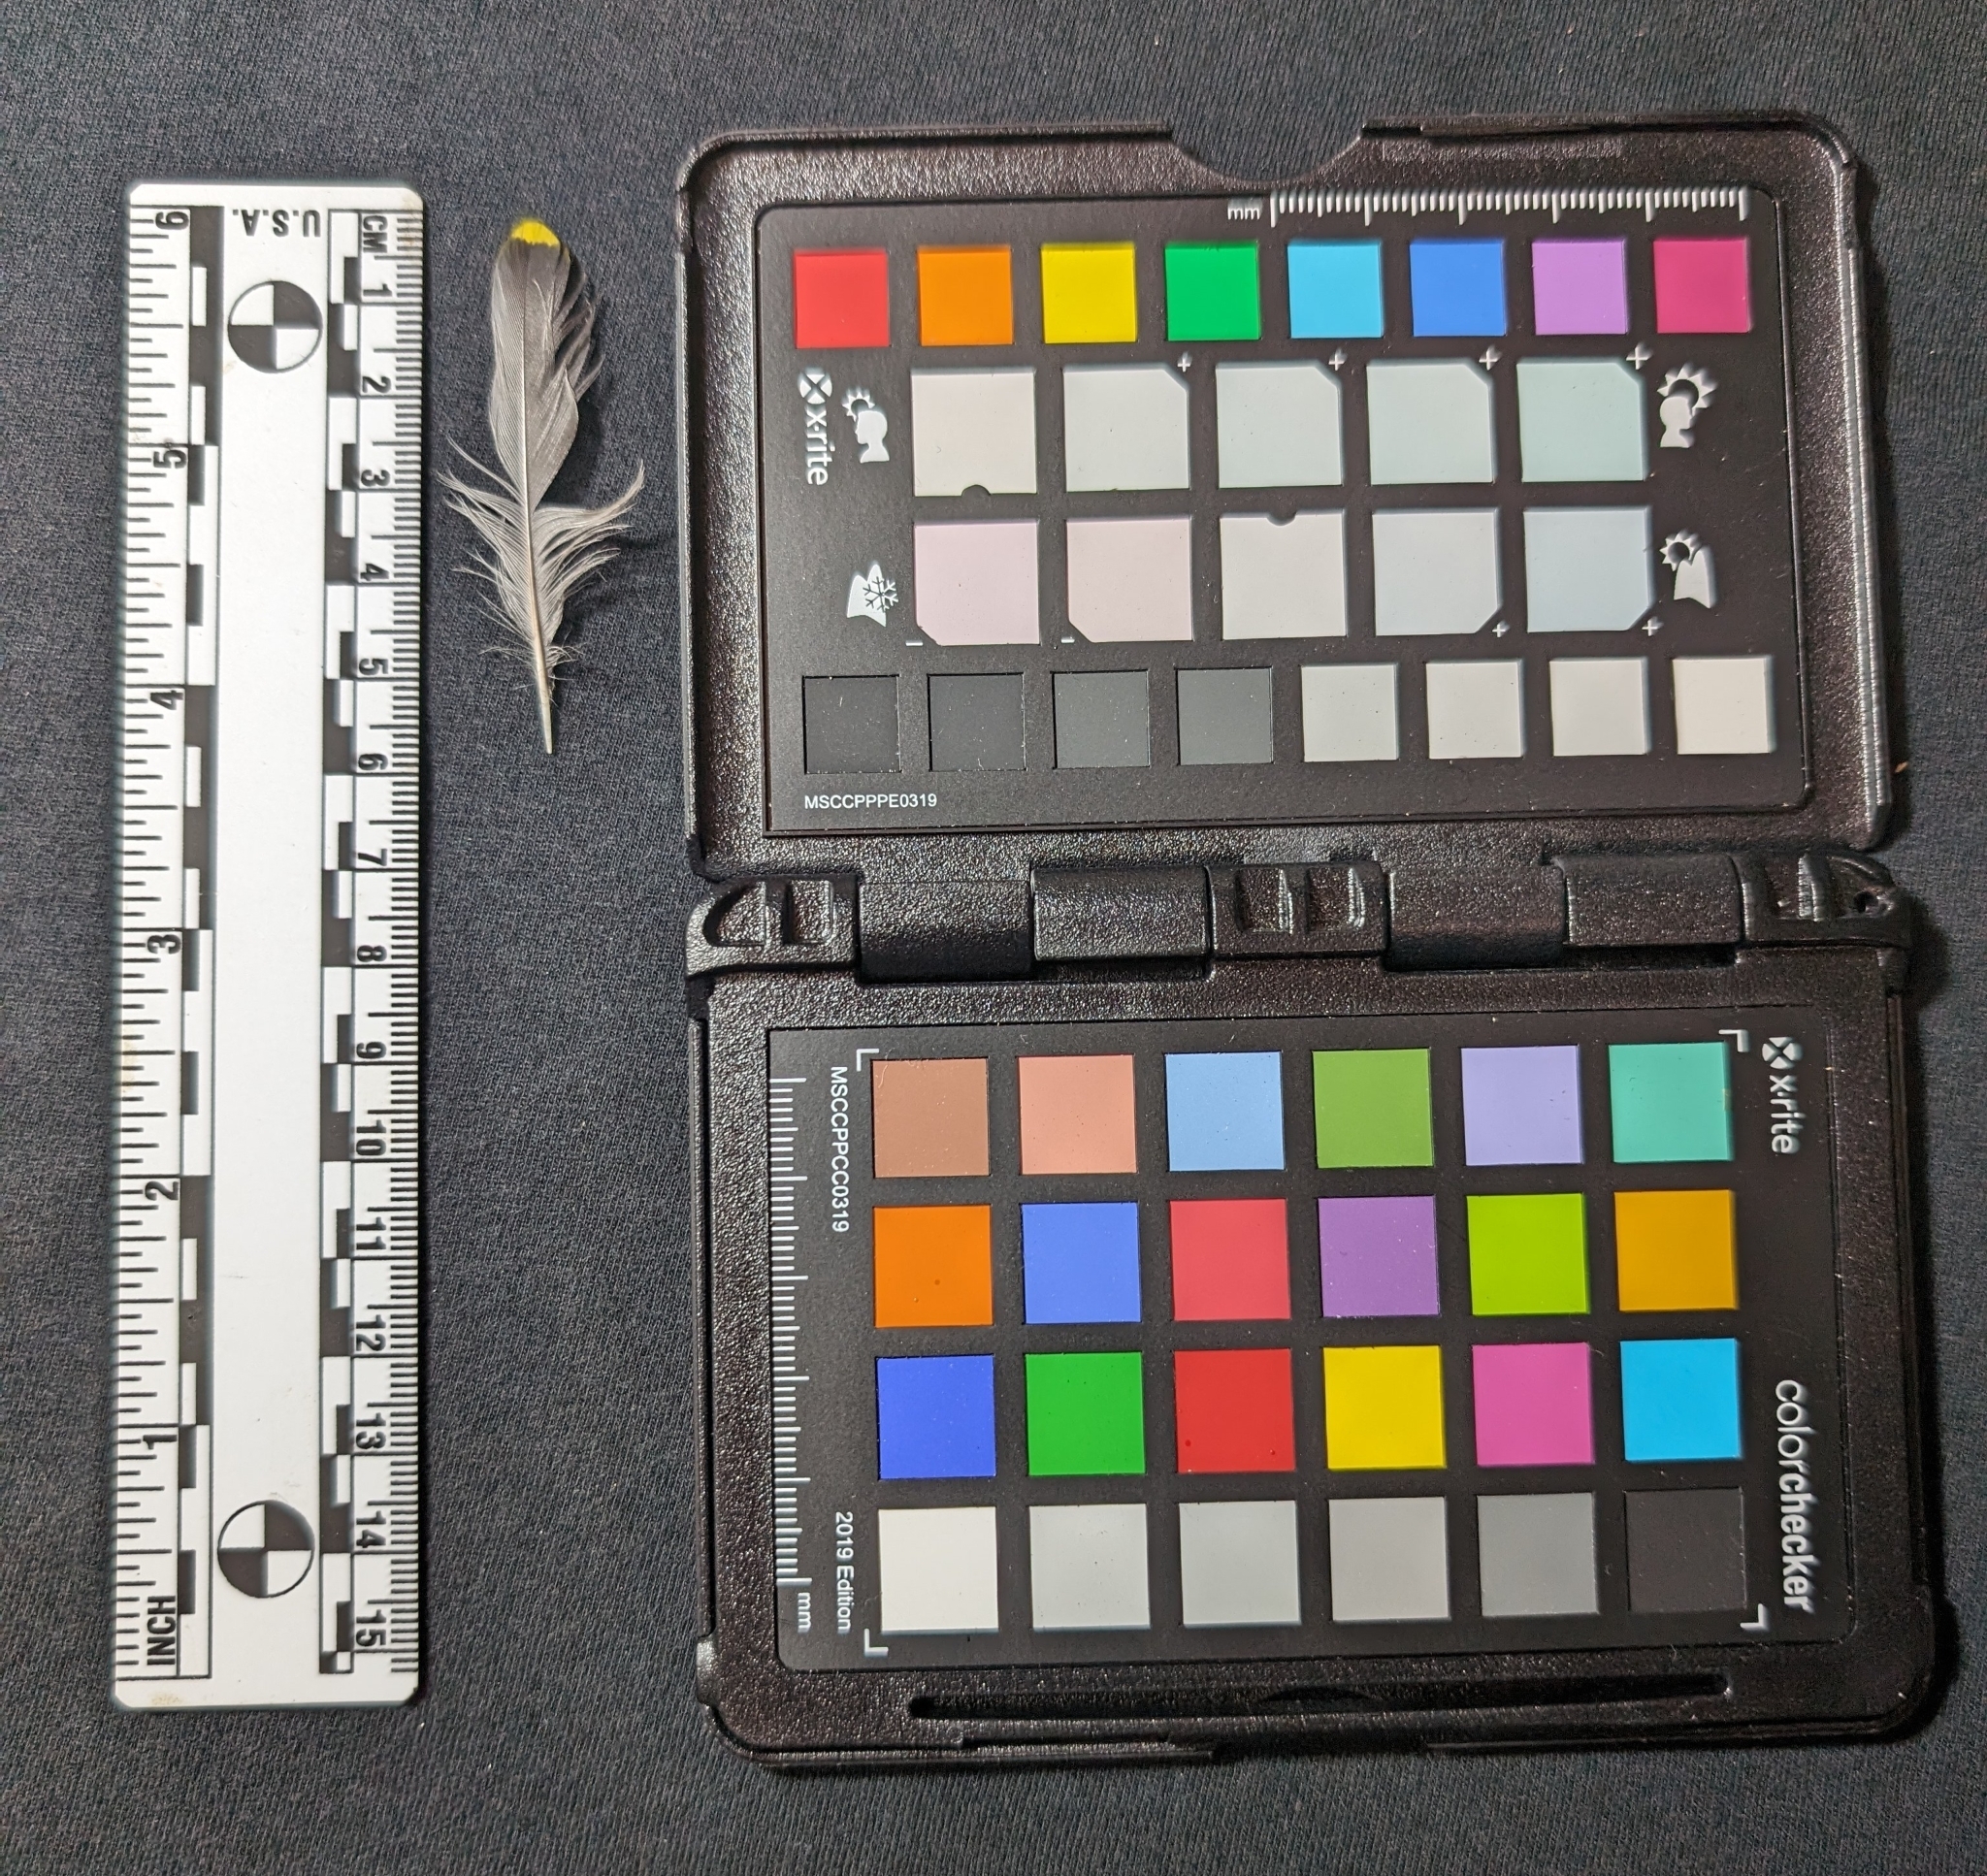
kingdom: Animalia
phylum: Chordata
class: Aves
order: Passeriformes
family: Bombycillidae
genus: Bombycilla
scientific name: Bombycilla cedrorum
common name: Cedar waxwing
